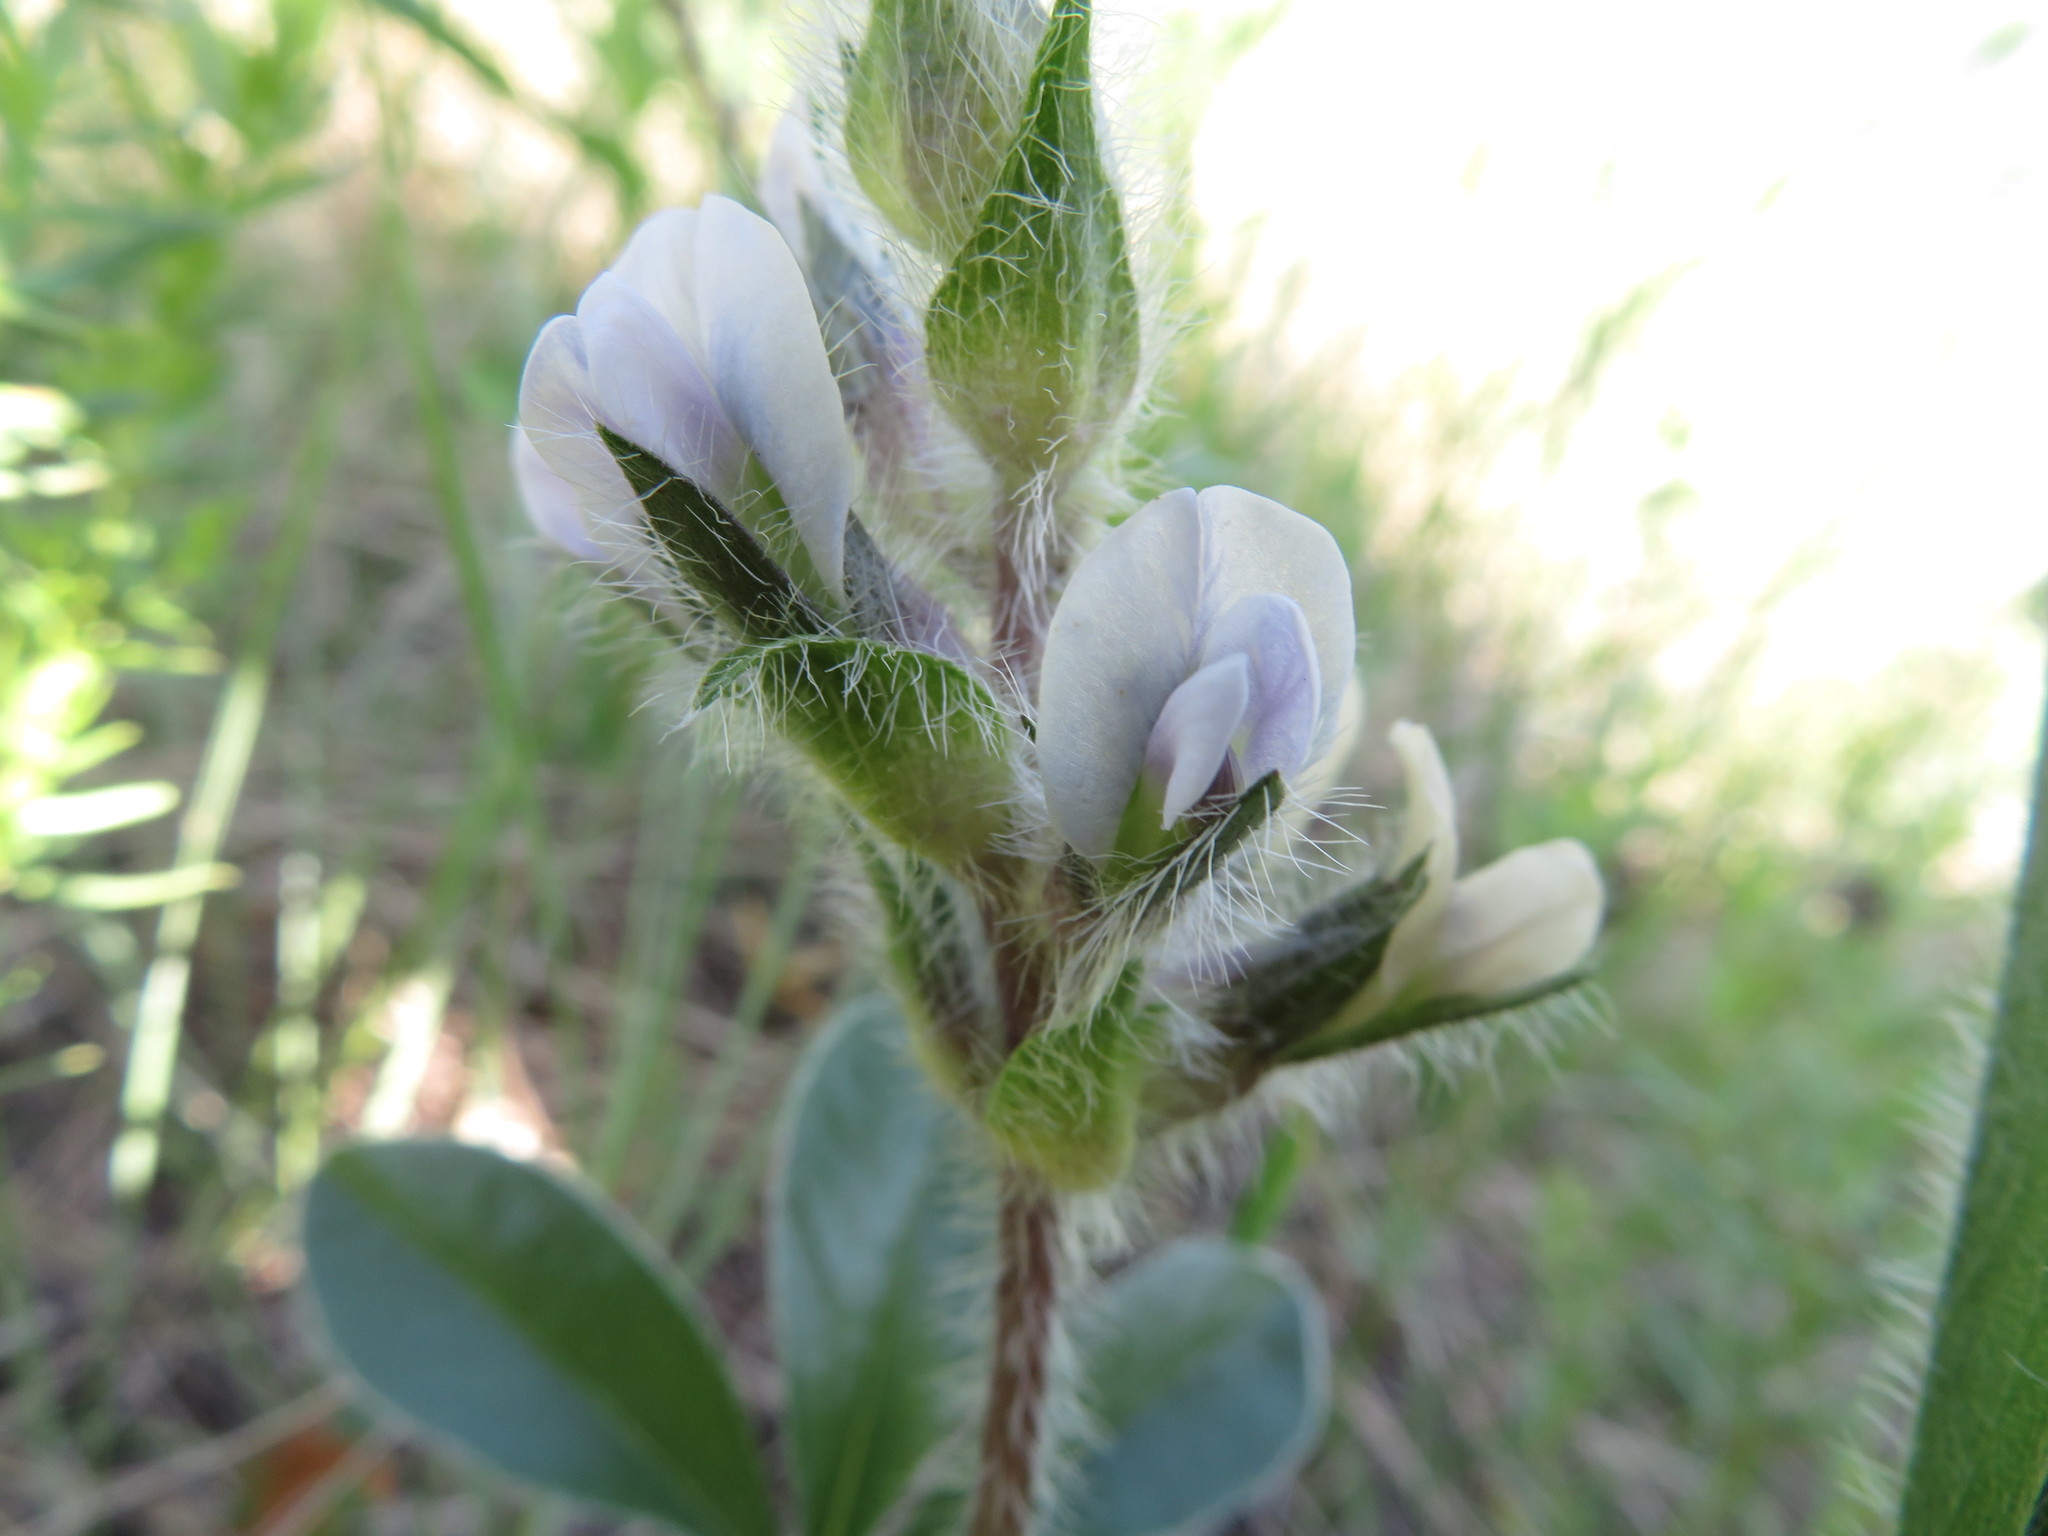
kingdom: Plantae
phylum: Tracheophyta
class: Magnoliopsida
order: Fabales
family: Fabaceae
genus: Pediomelum
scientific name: Pediomelum esculentum
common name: Indian-turnip
